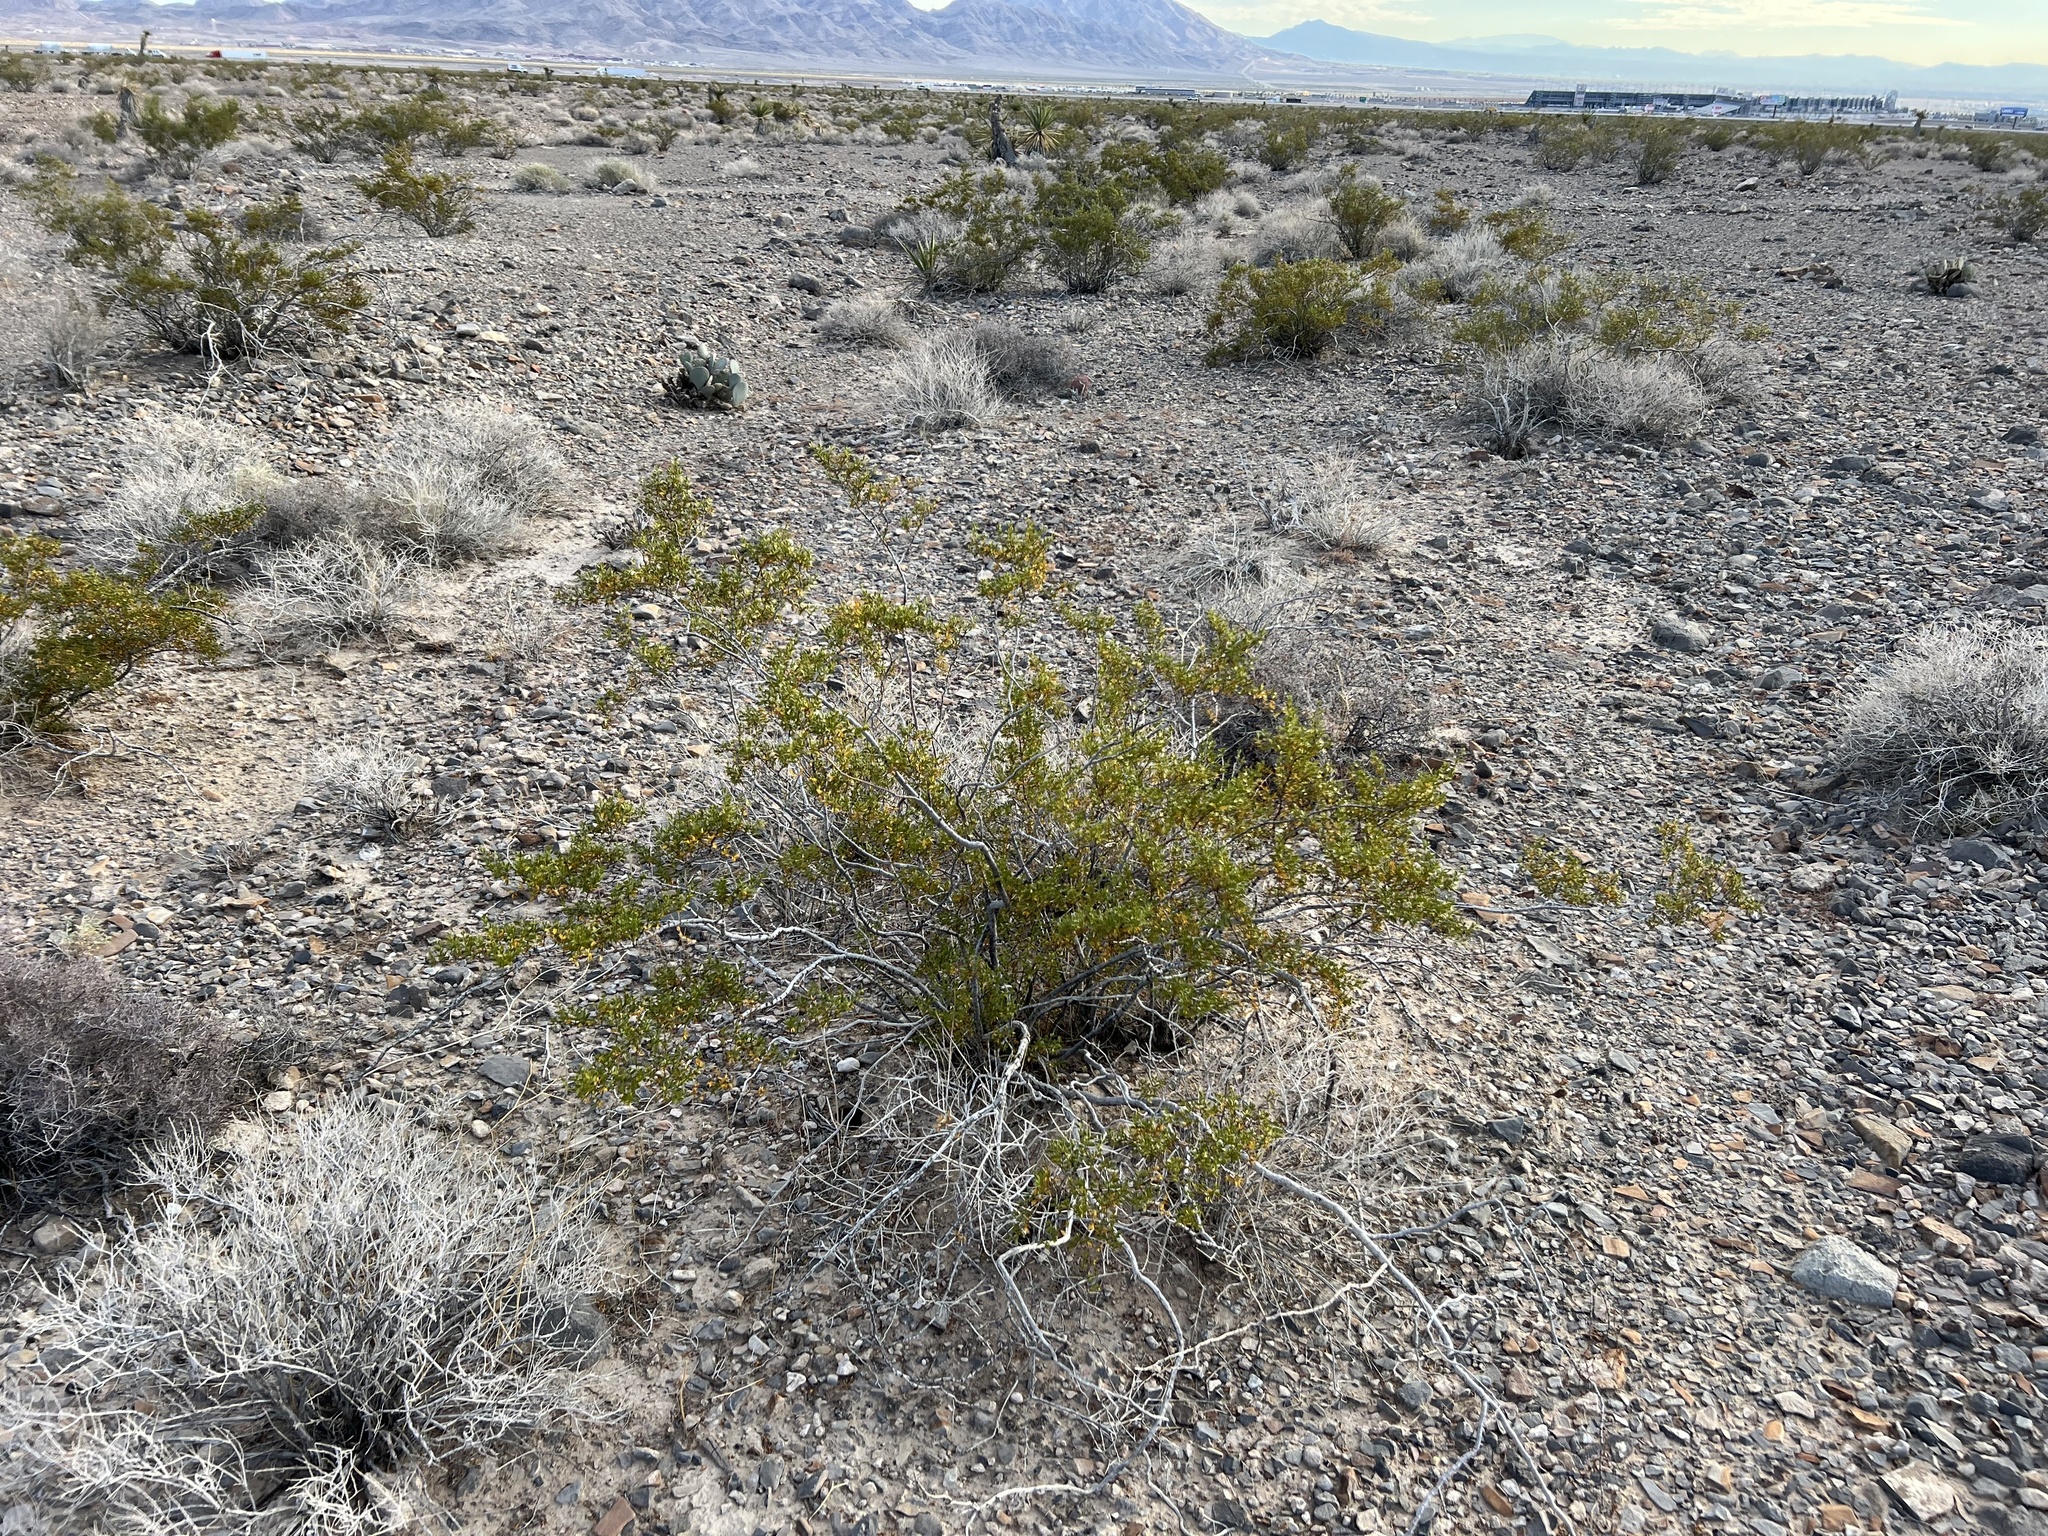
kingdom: Plantae
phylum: Tracheophyta
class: Magnoliopsida
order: Zygophyllales
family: Zygophyllaceae
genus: Larrea
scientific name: Larrea tridentata
